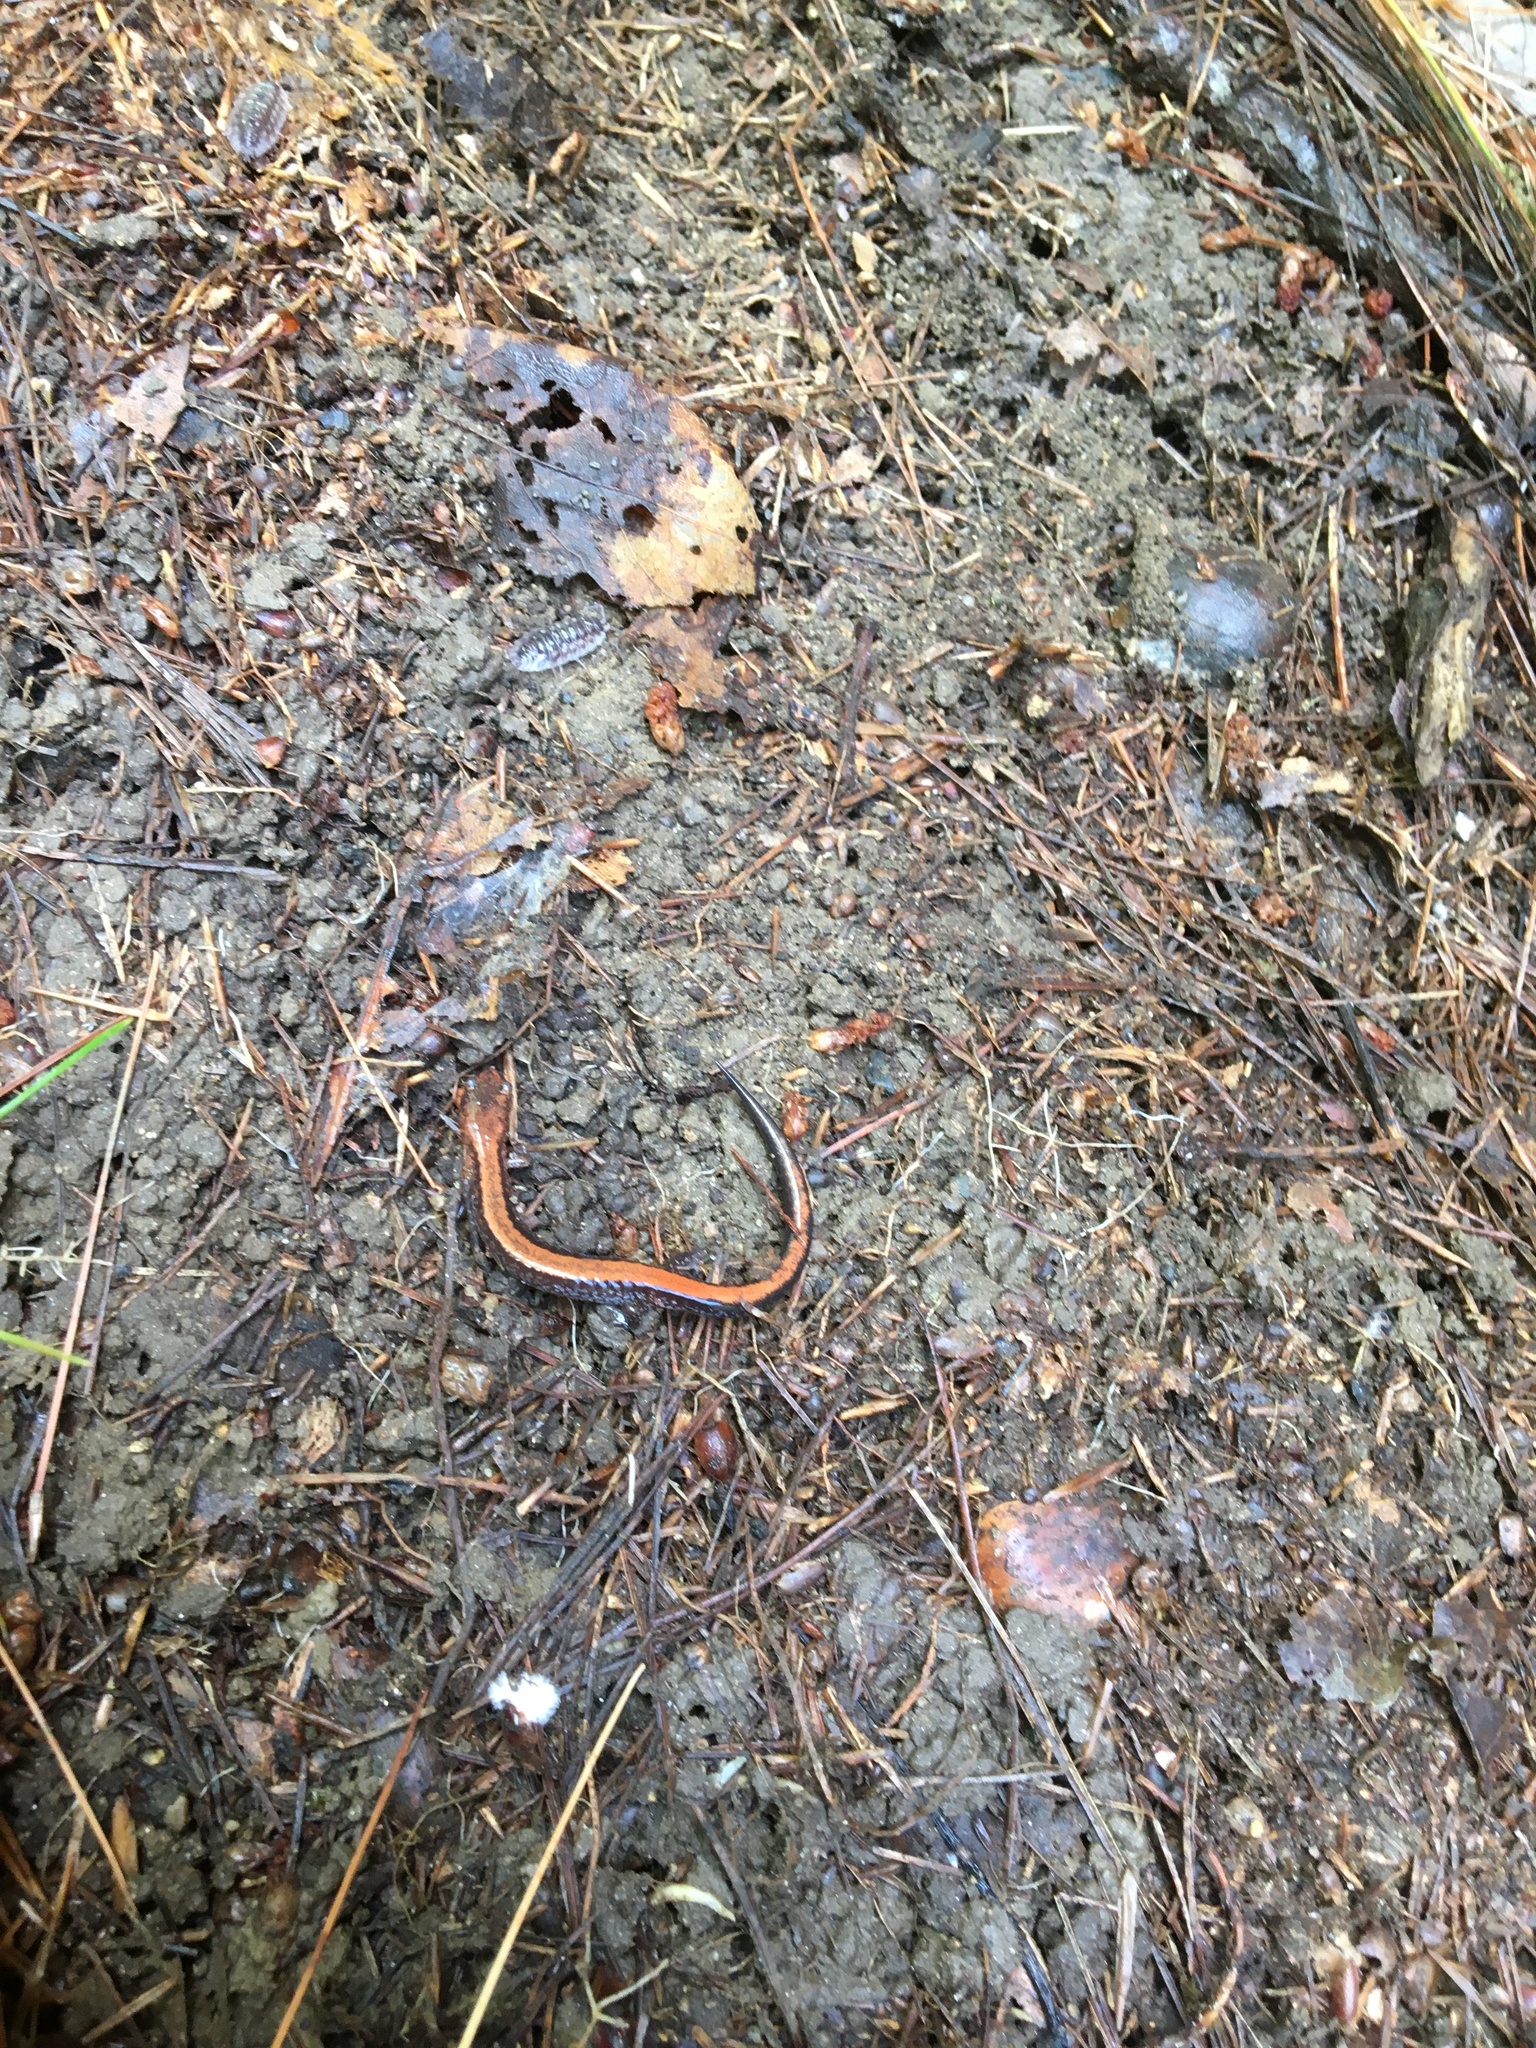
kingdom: Animalia
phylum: Chordata
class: Amphibia
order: Caudata
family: Plethodontidae
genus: Plethodon
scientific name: Plethodon cinereus
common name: Redback salamander
